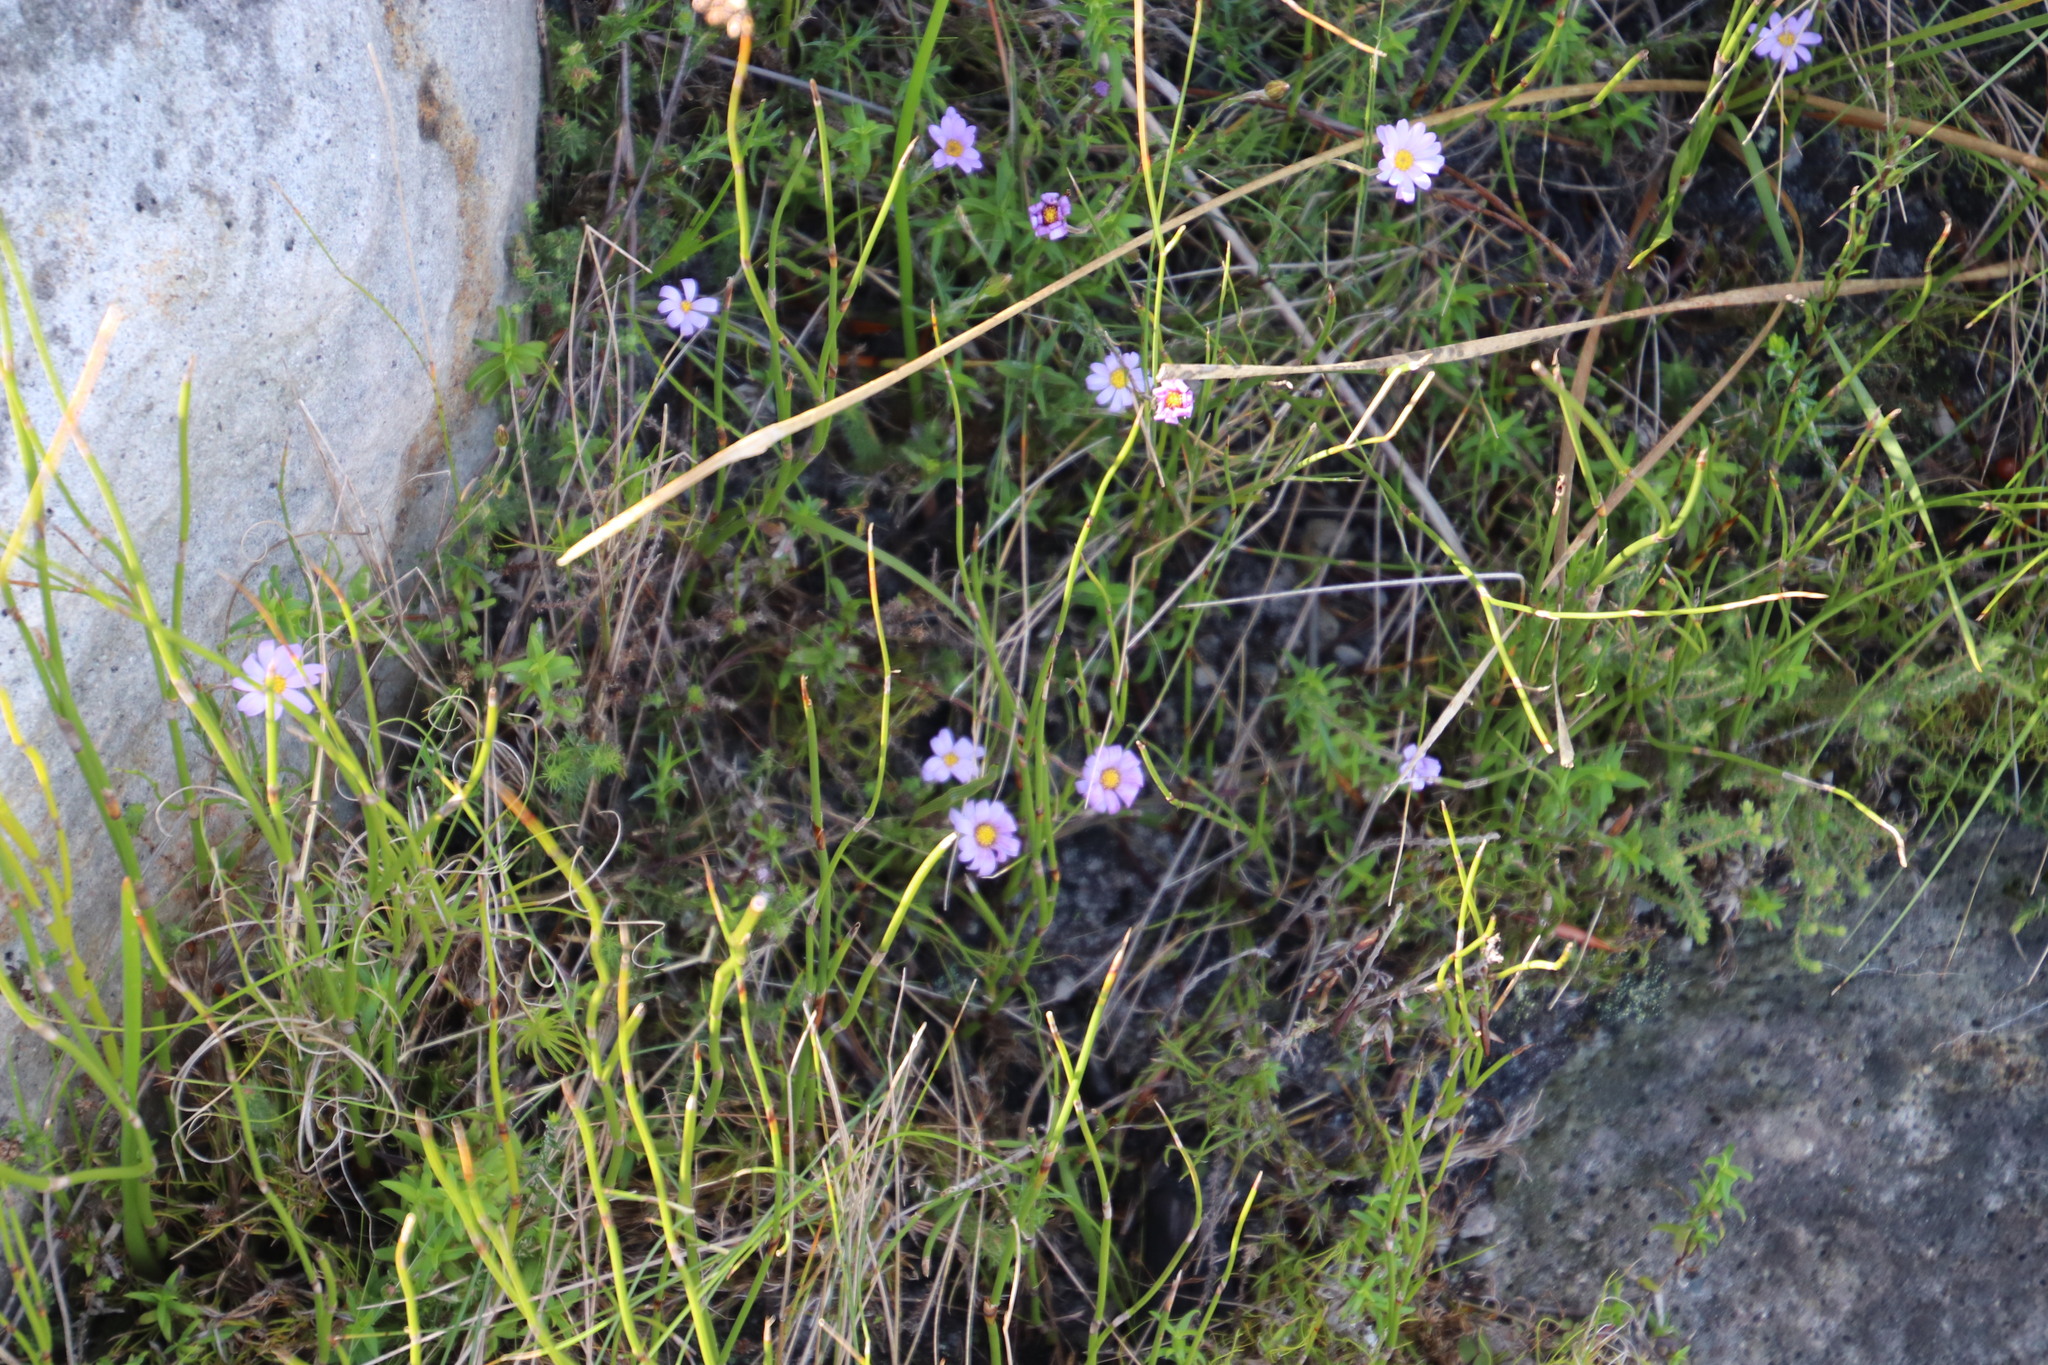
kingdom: Plantae
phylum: Tracheophyta
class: Magnoliopsida
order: Asterales
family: Asteraceae
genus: Zyrphelis
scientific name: Zyrphelis taxifolia
